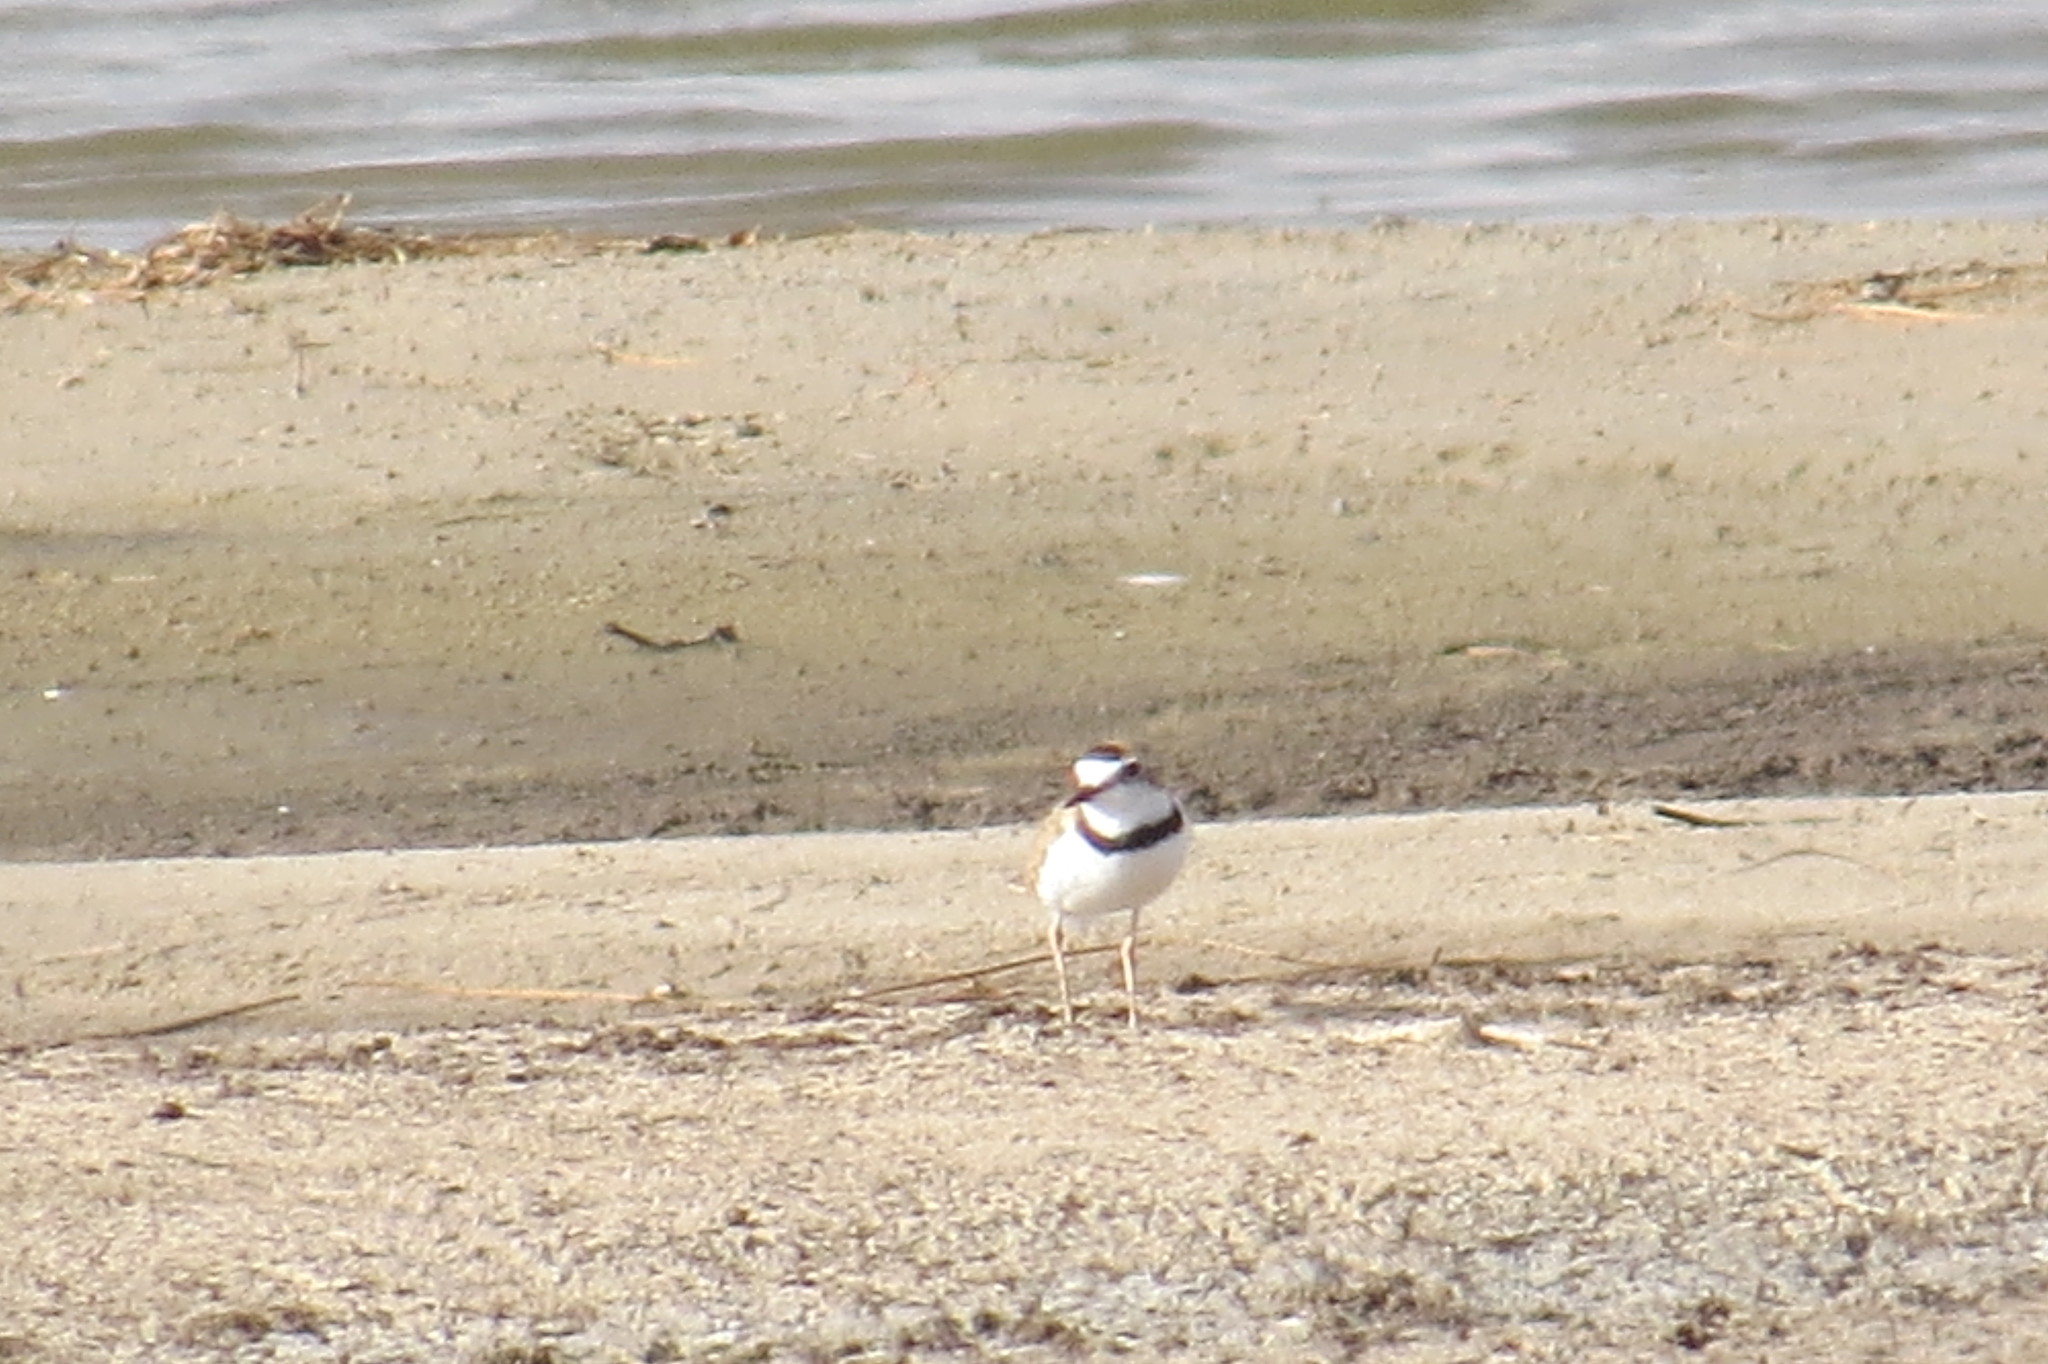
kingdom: Animalia
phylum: Chordata
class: Aves
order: Charadriiformes
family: Charadriidae
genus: Anarhynchus
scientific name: Anarhynchus
